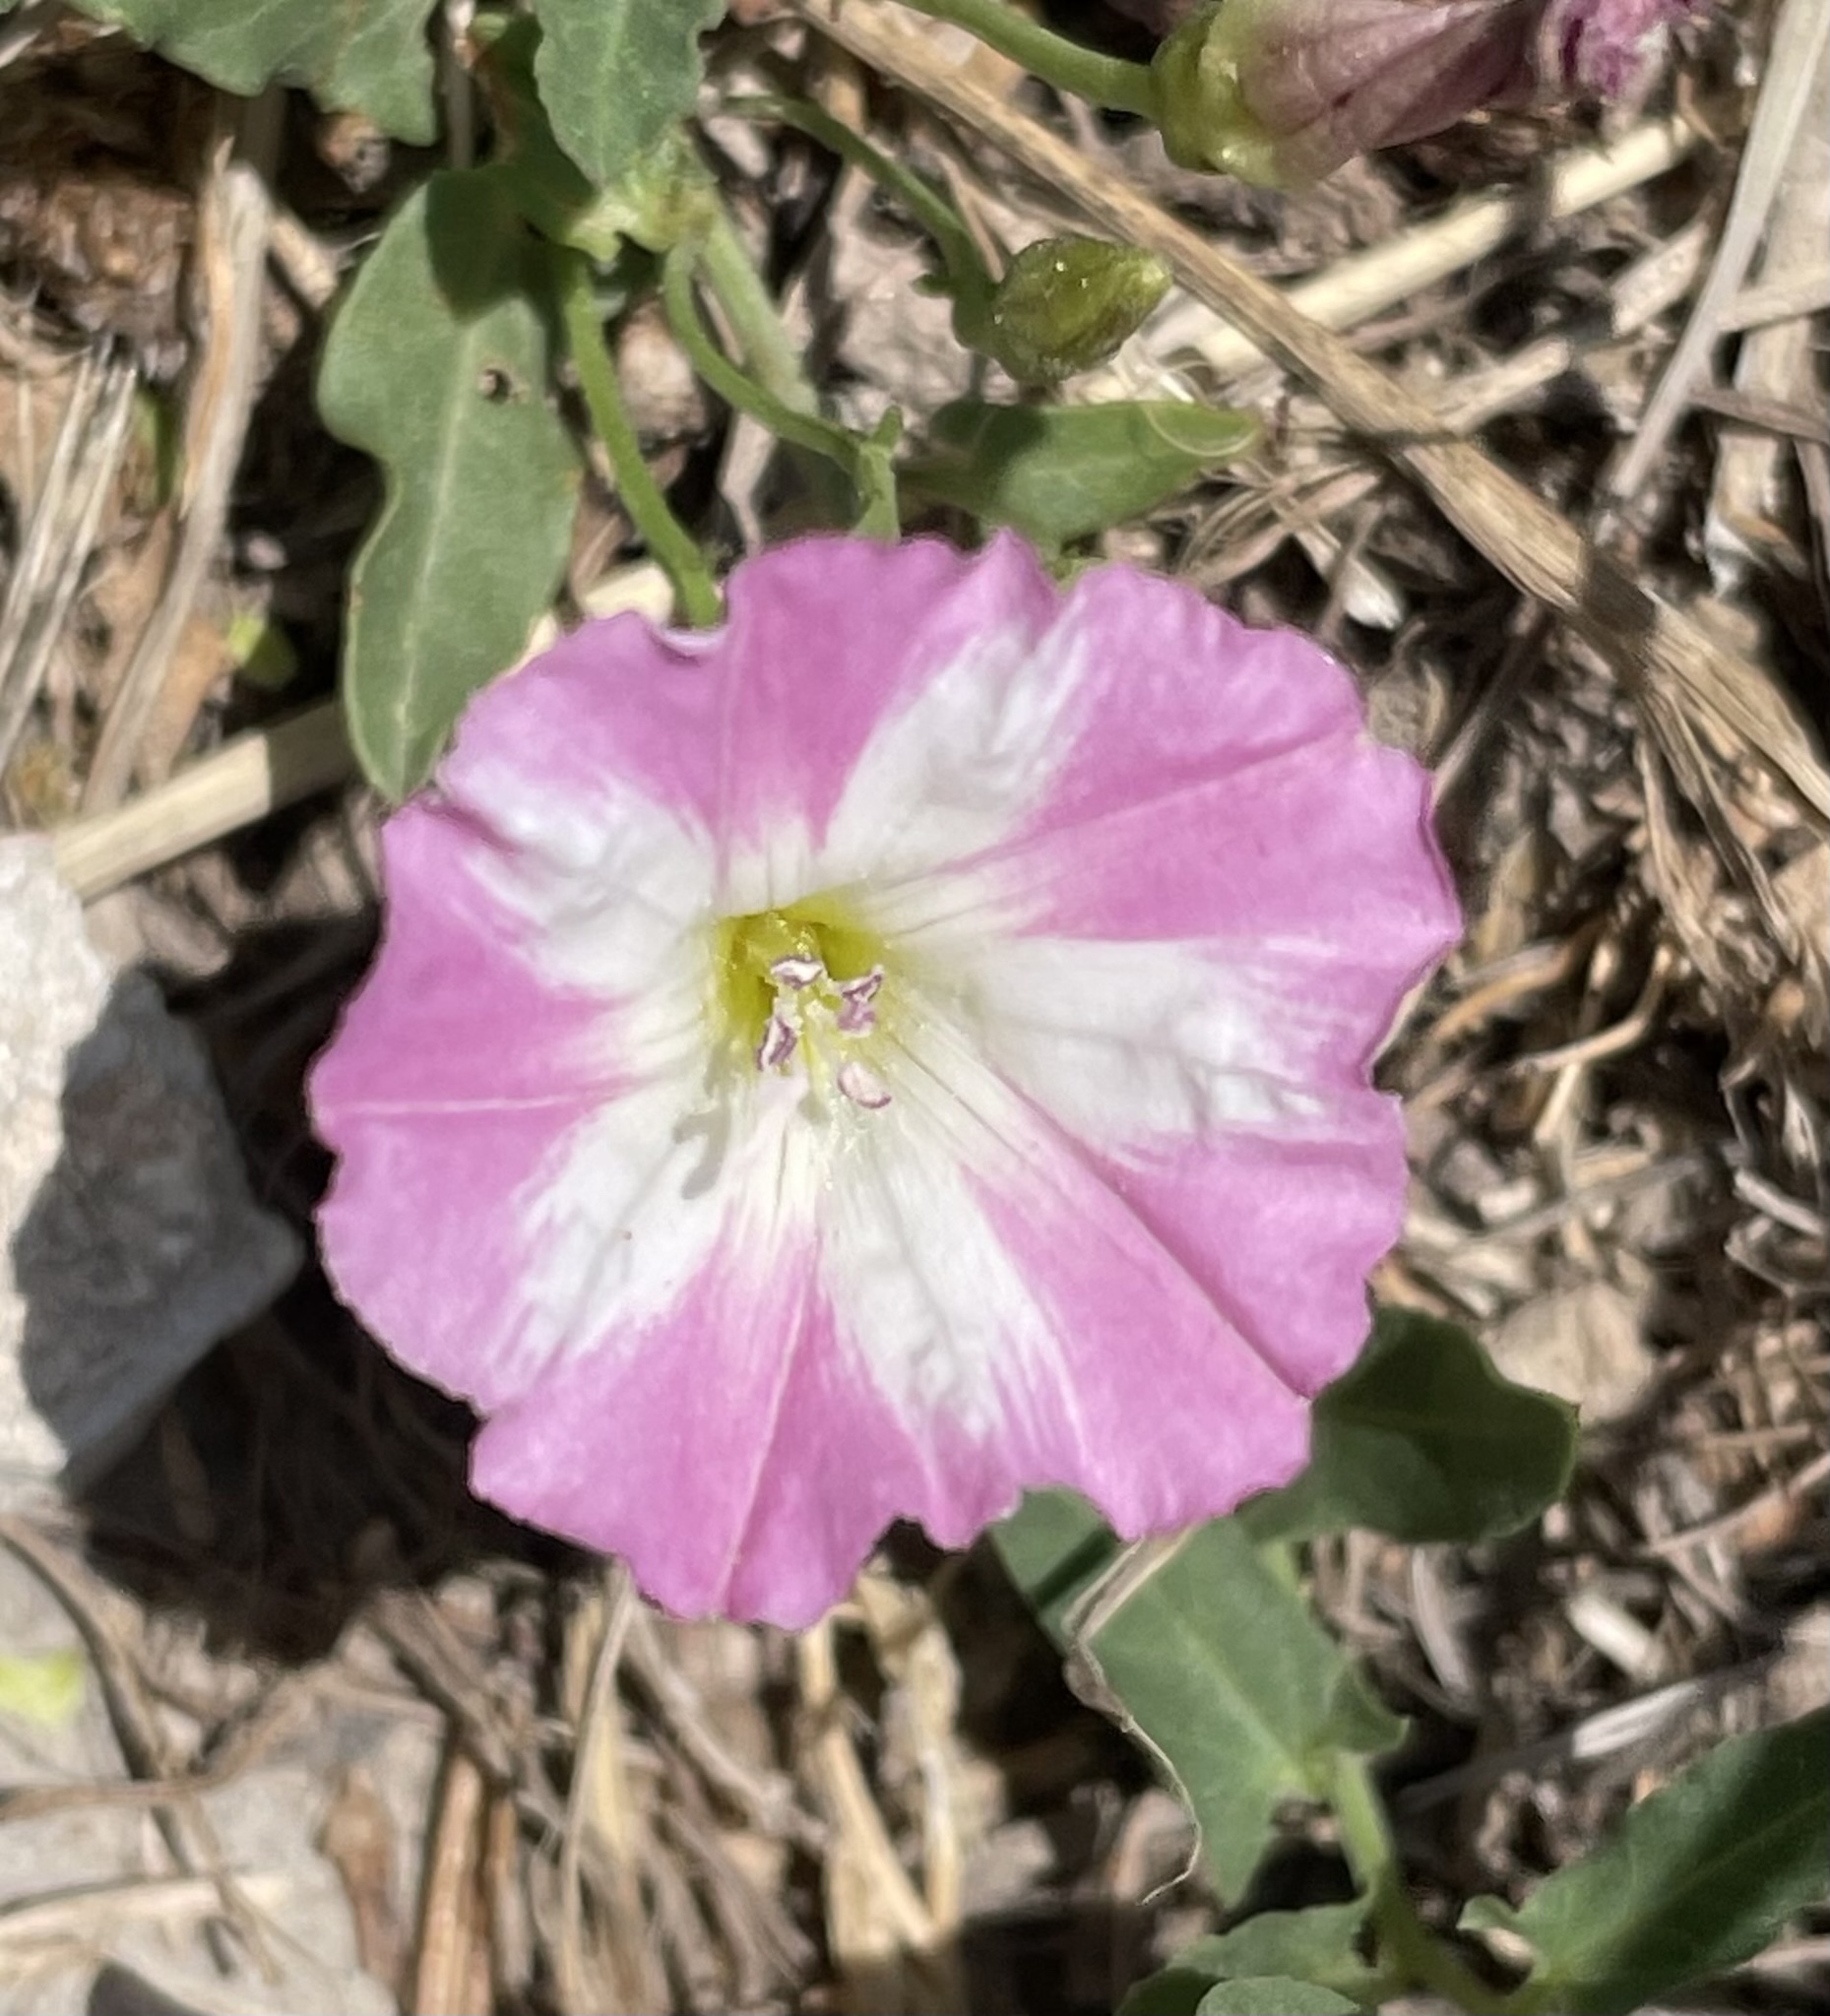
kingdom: Plantae
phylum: Tracheophyta
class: Magnoliopsida
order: Solanales
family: Convolvulaceae
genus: Convolvulus
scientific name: Convolvulus arvensis
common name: Field bindweed
